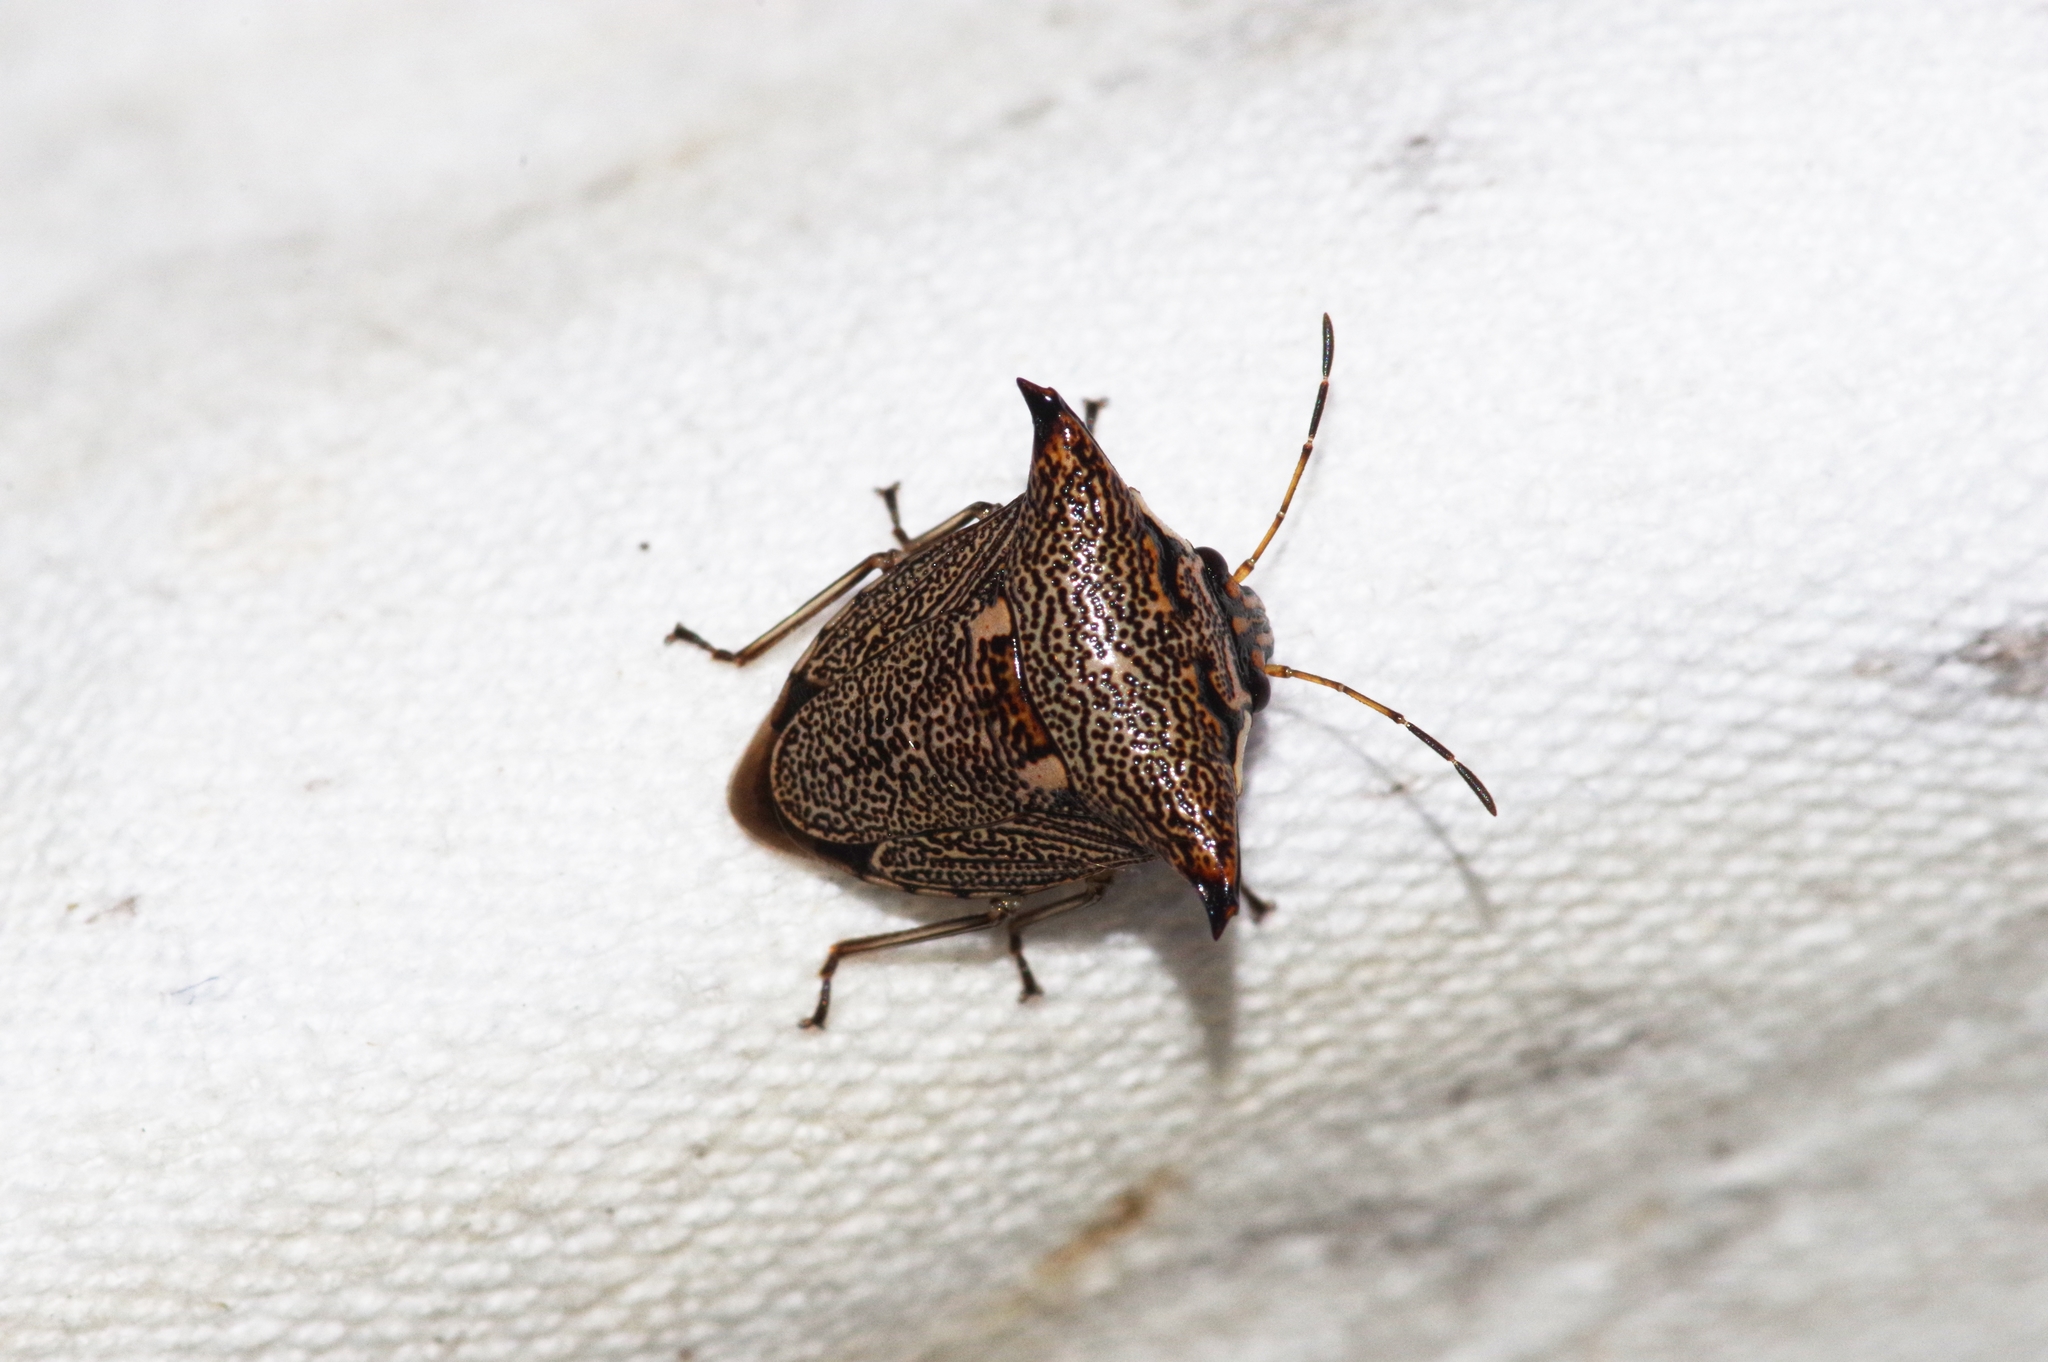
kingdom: Animalia
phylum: Arthropoda
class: Insecta
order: Hemiptera
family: Pentatomidae
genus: Alcimocoris
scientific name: Alcimocoris japonersis
